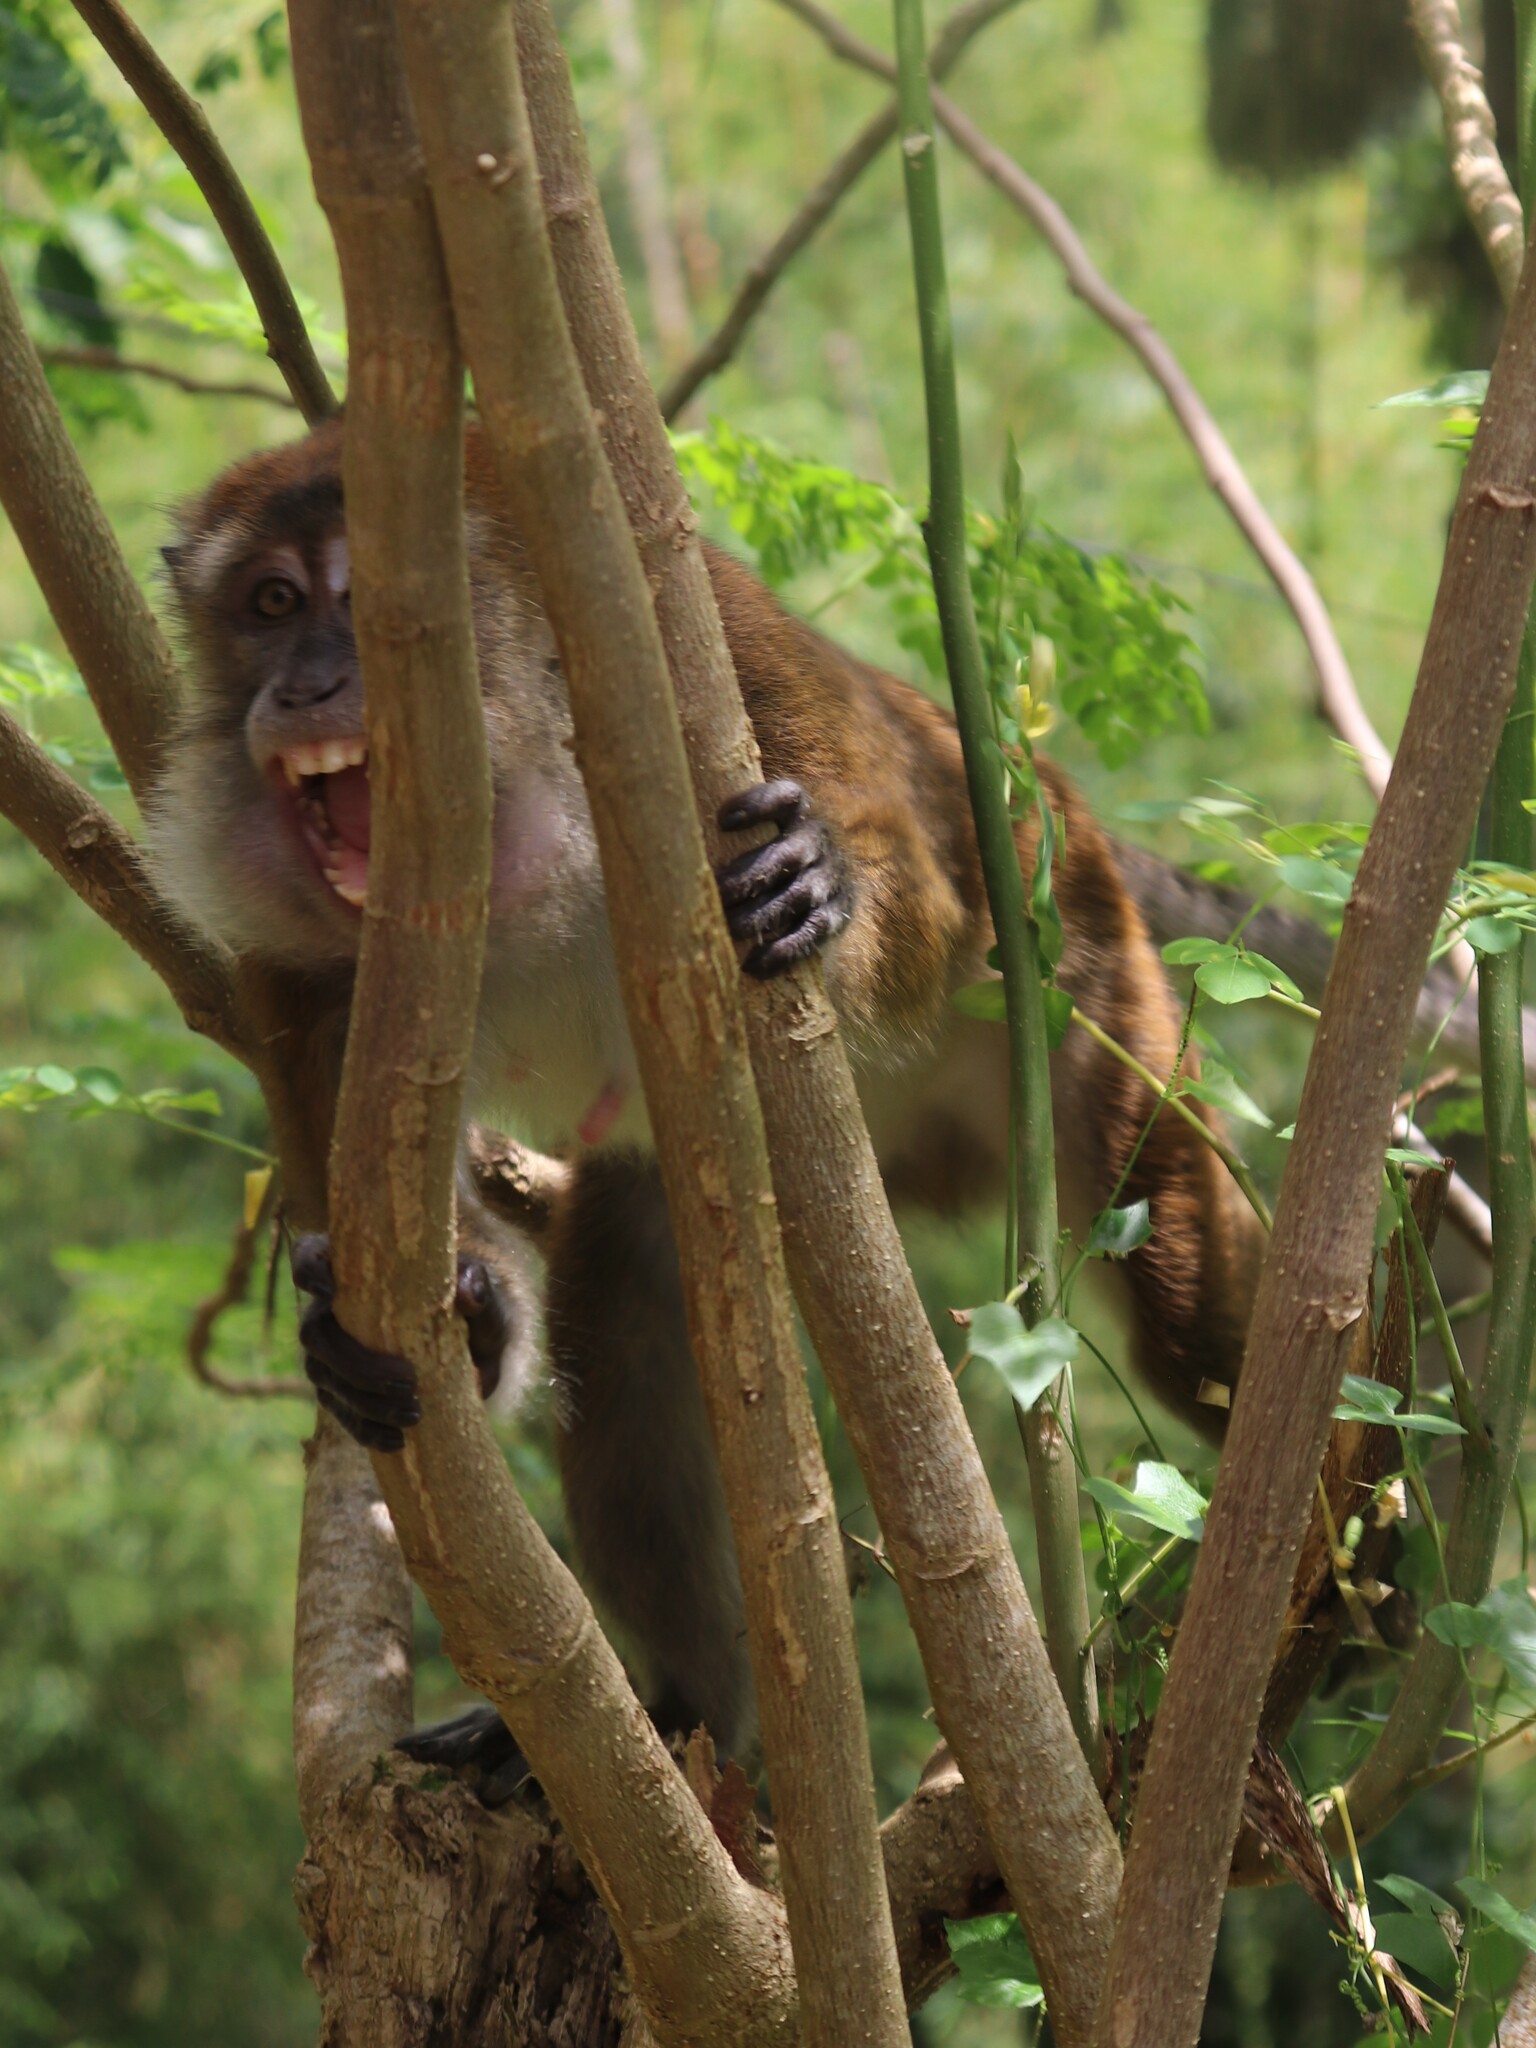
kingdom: Animalia
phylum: Chordata
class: Mammalia
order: Primates
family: Cercopithecidae
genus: Macaca
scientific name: Macaca fascicularis
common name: Crab-eating macaque
